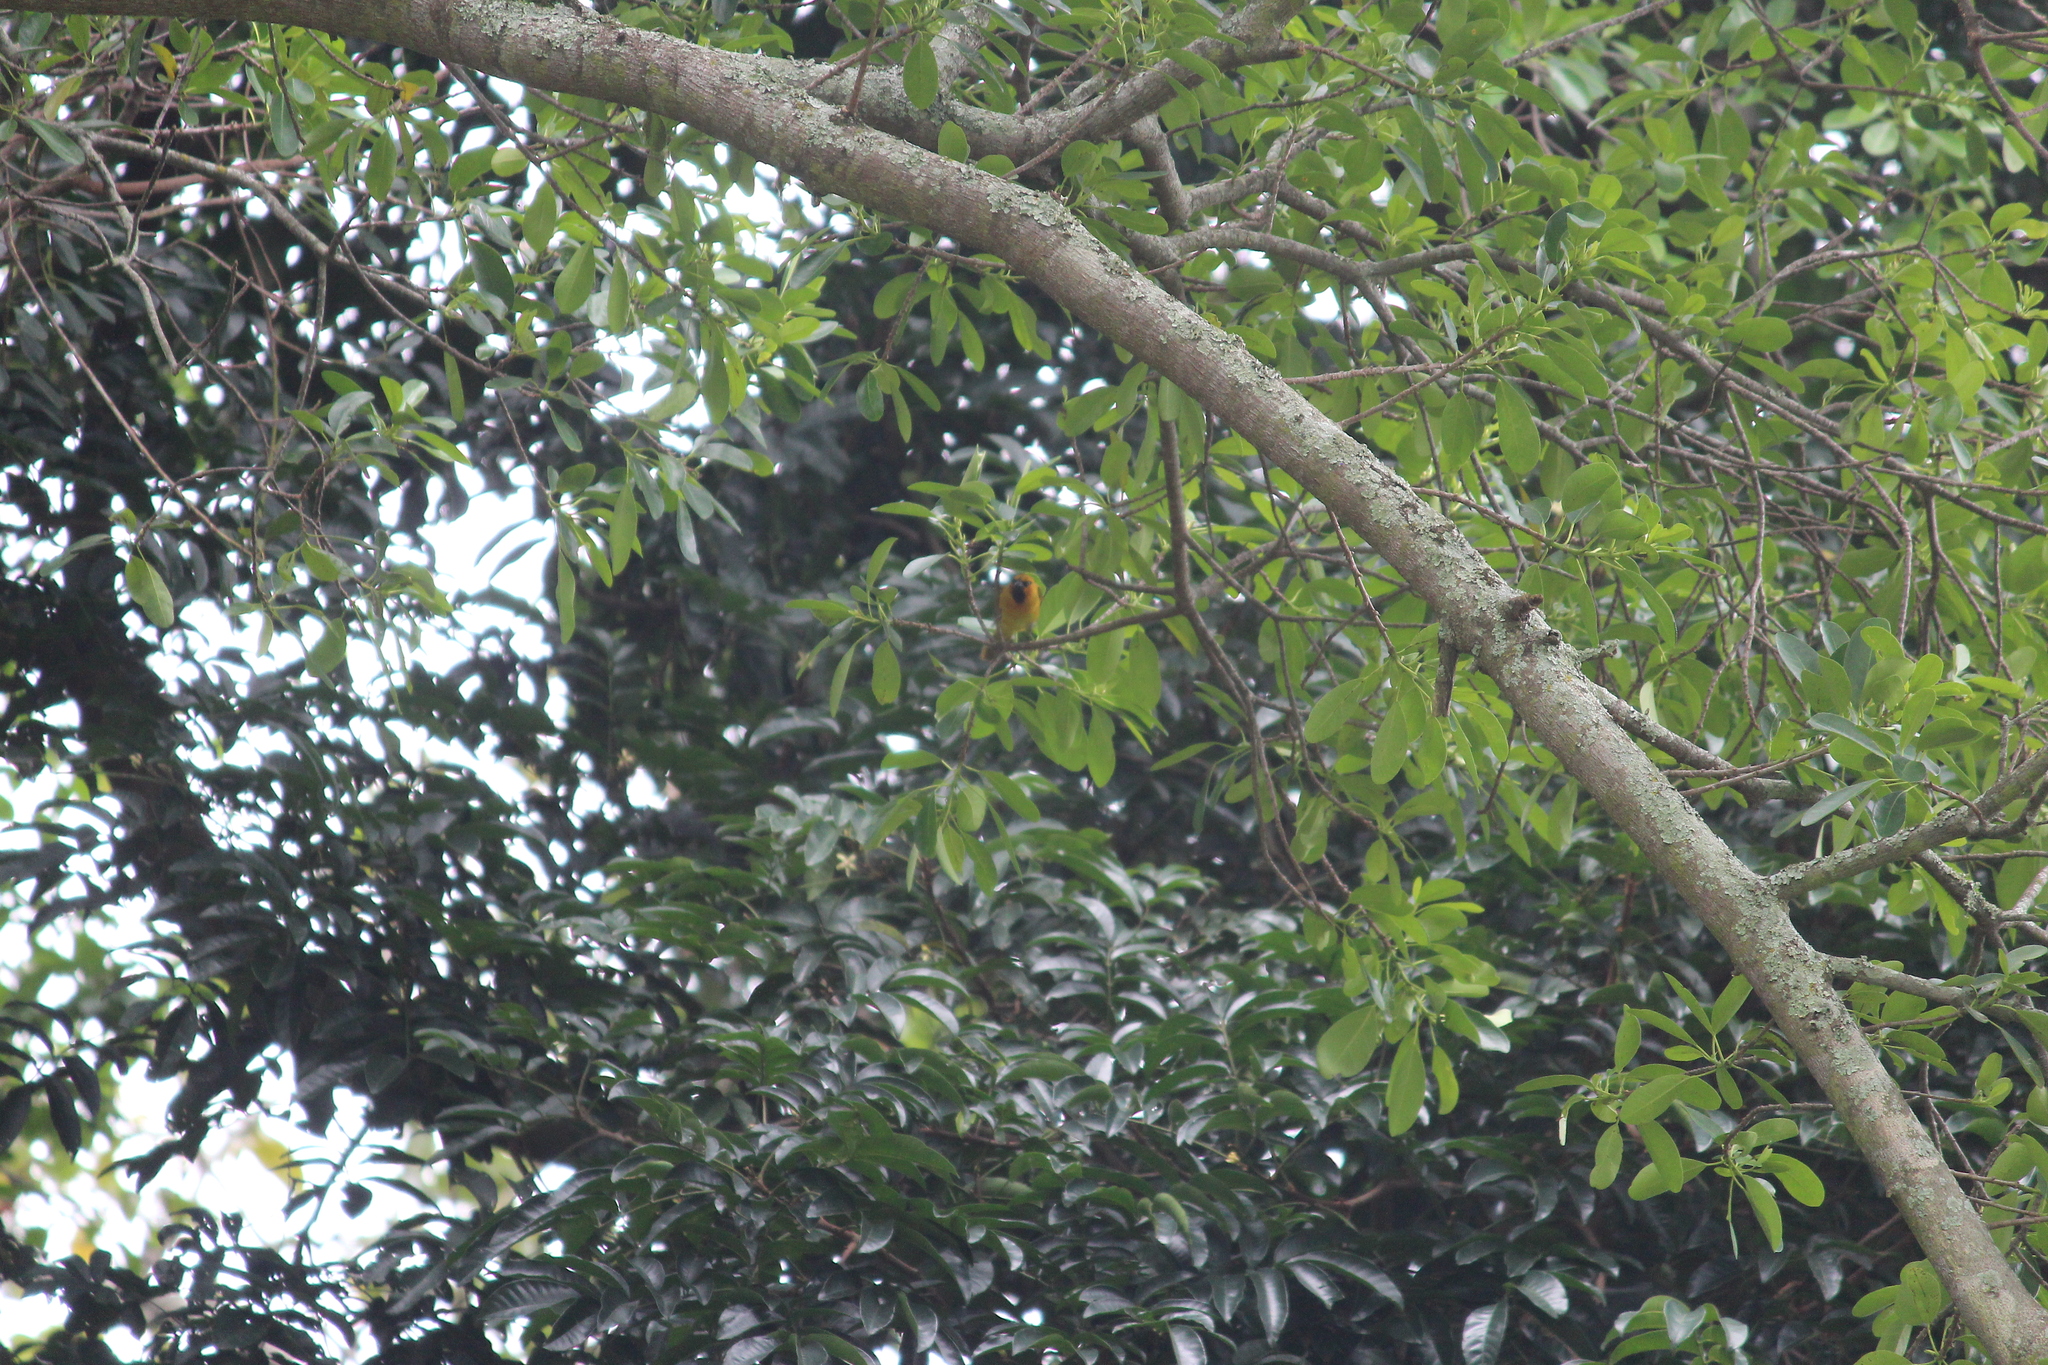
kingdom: Animalia
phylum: Chordata
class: Aves
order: Passeriformes
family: Ploceidae
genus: Ploceus
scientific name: Ploceus ocularis
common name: Spectacled weaver
